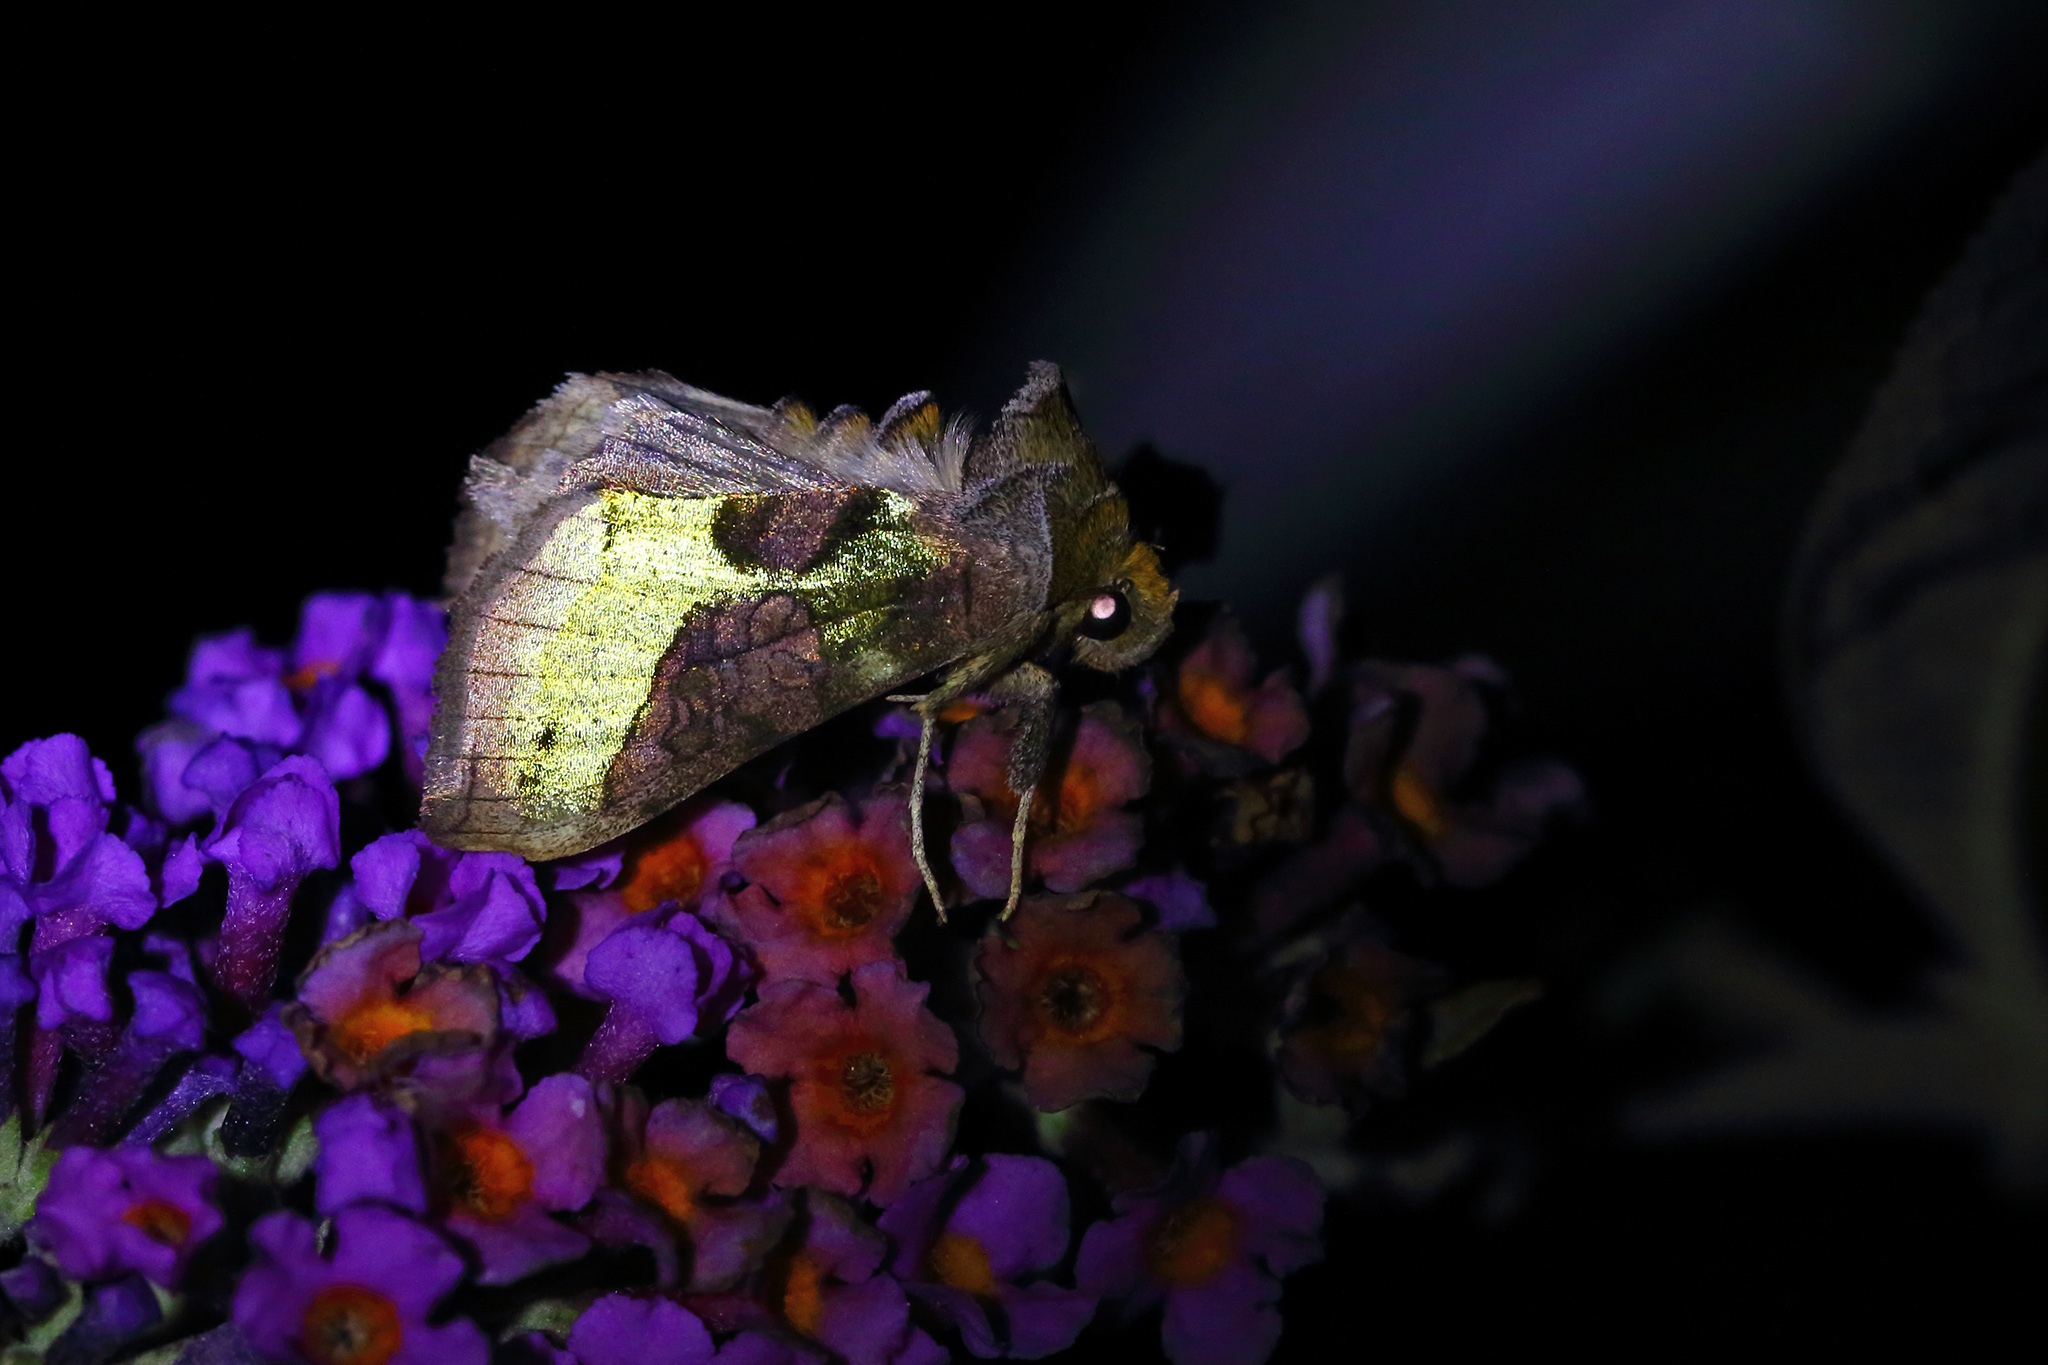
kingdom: Animalia
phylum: Arthropoda
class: Insecta
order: Lepidoptera
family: Noctuidae
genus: Diachrysia
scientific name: Diachrysia chrysitis
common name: Burnished brass
